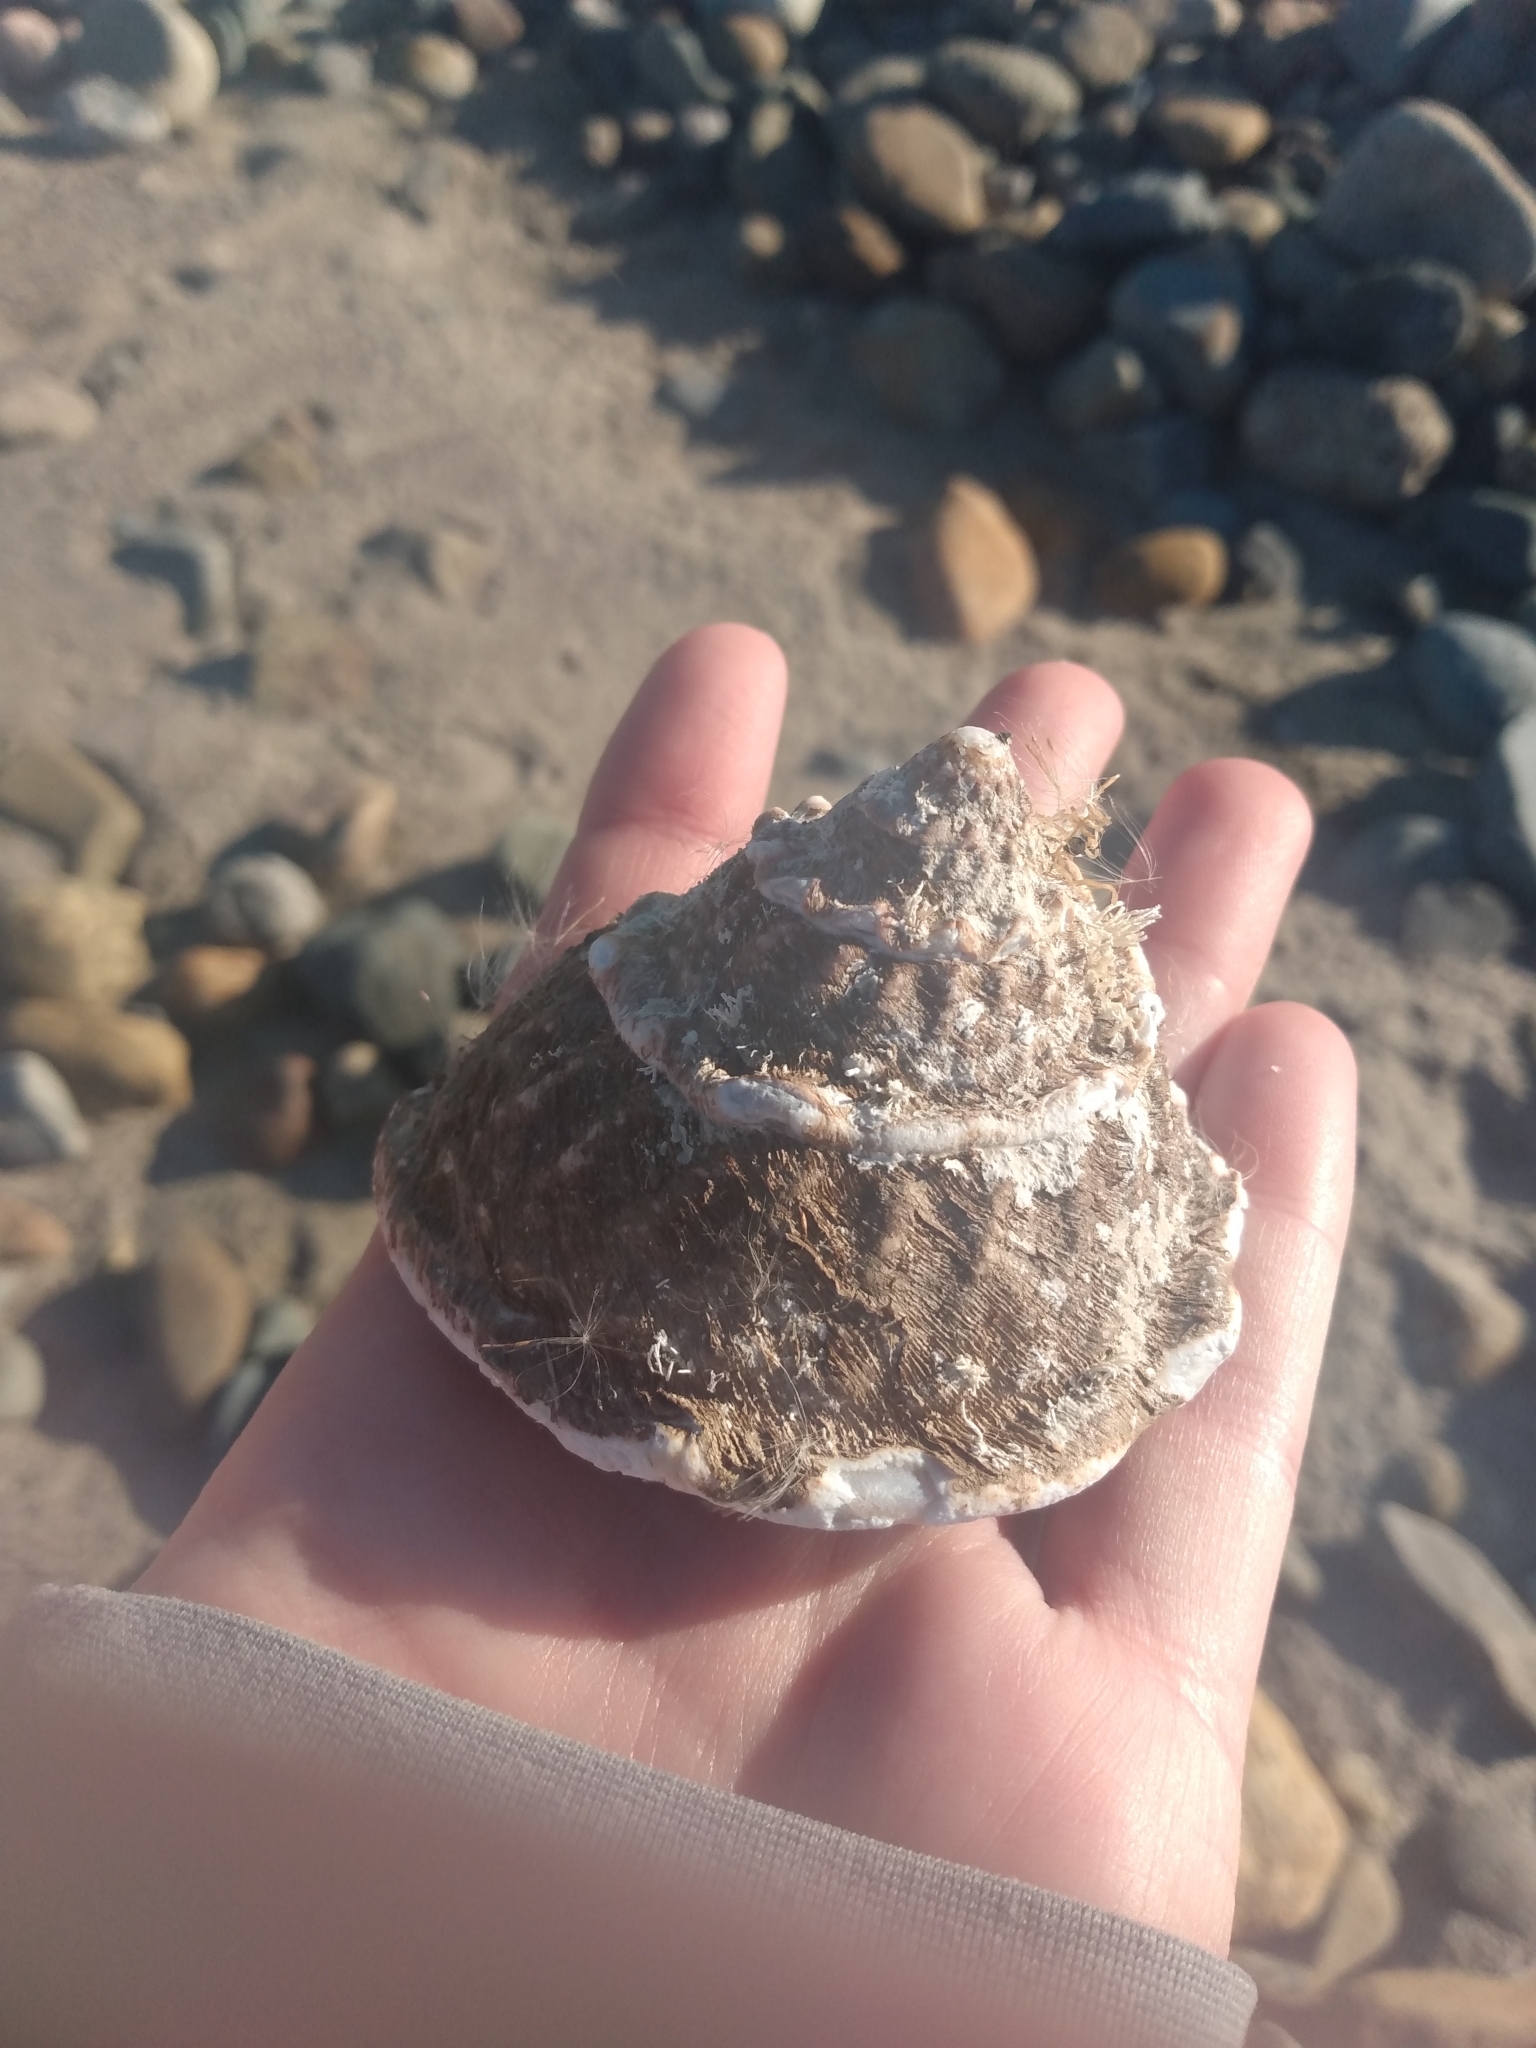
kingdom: Animalia
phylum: Mollusca
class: Gastropoda
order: Trochida
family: Turbinidae
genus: Megastraea
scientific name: Megastraea undosa
